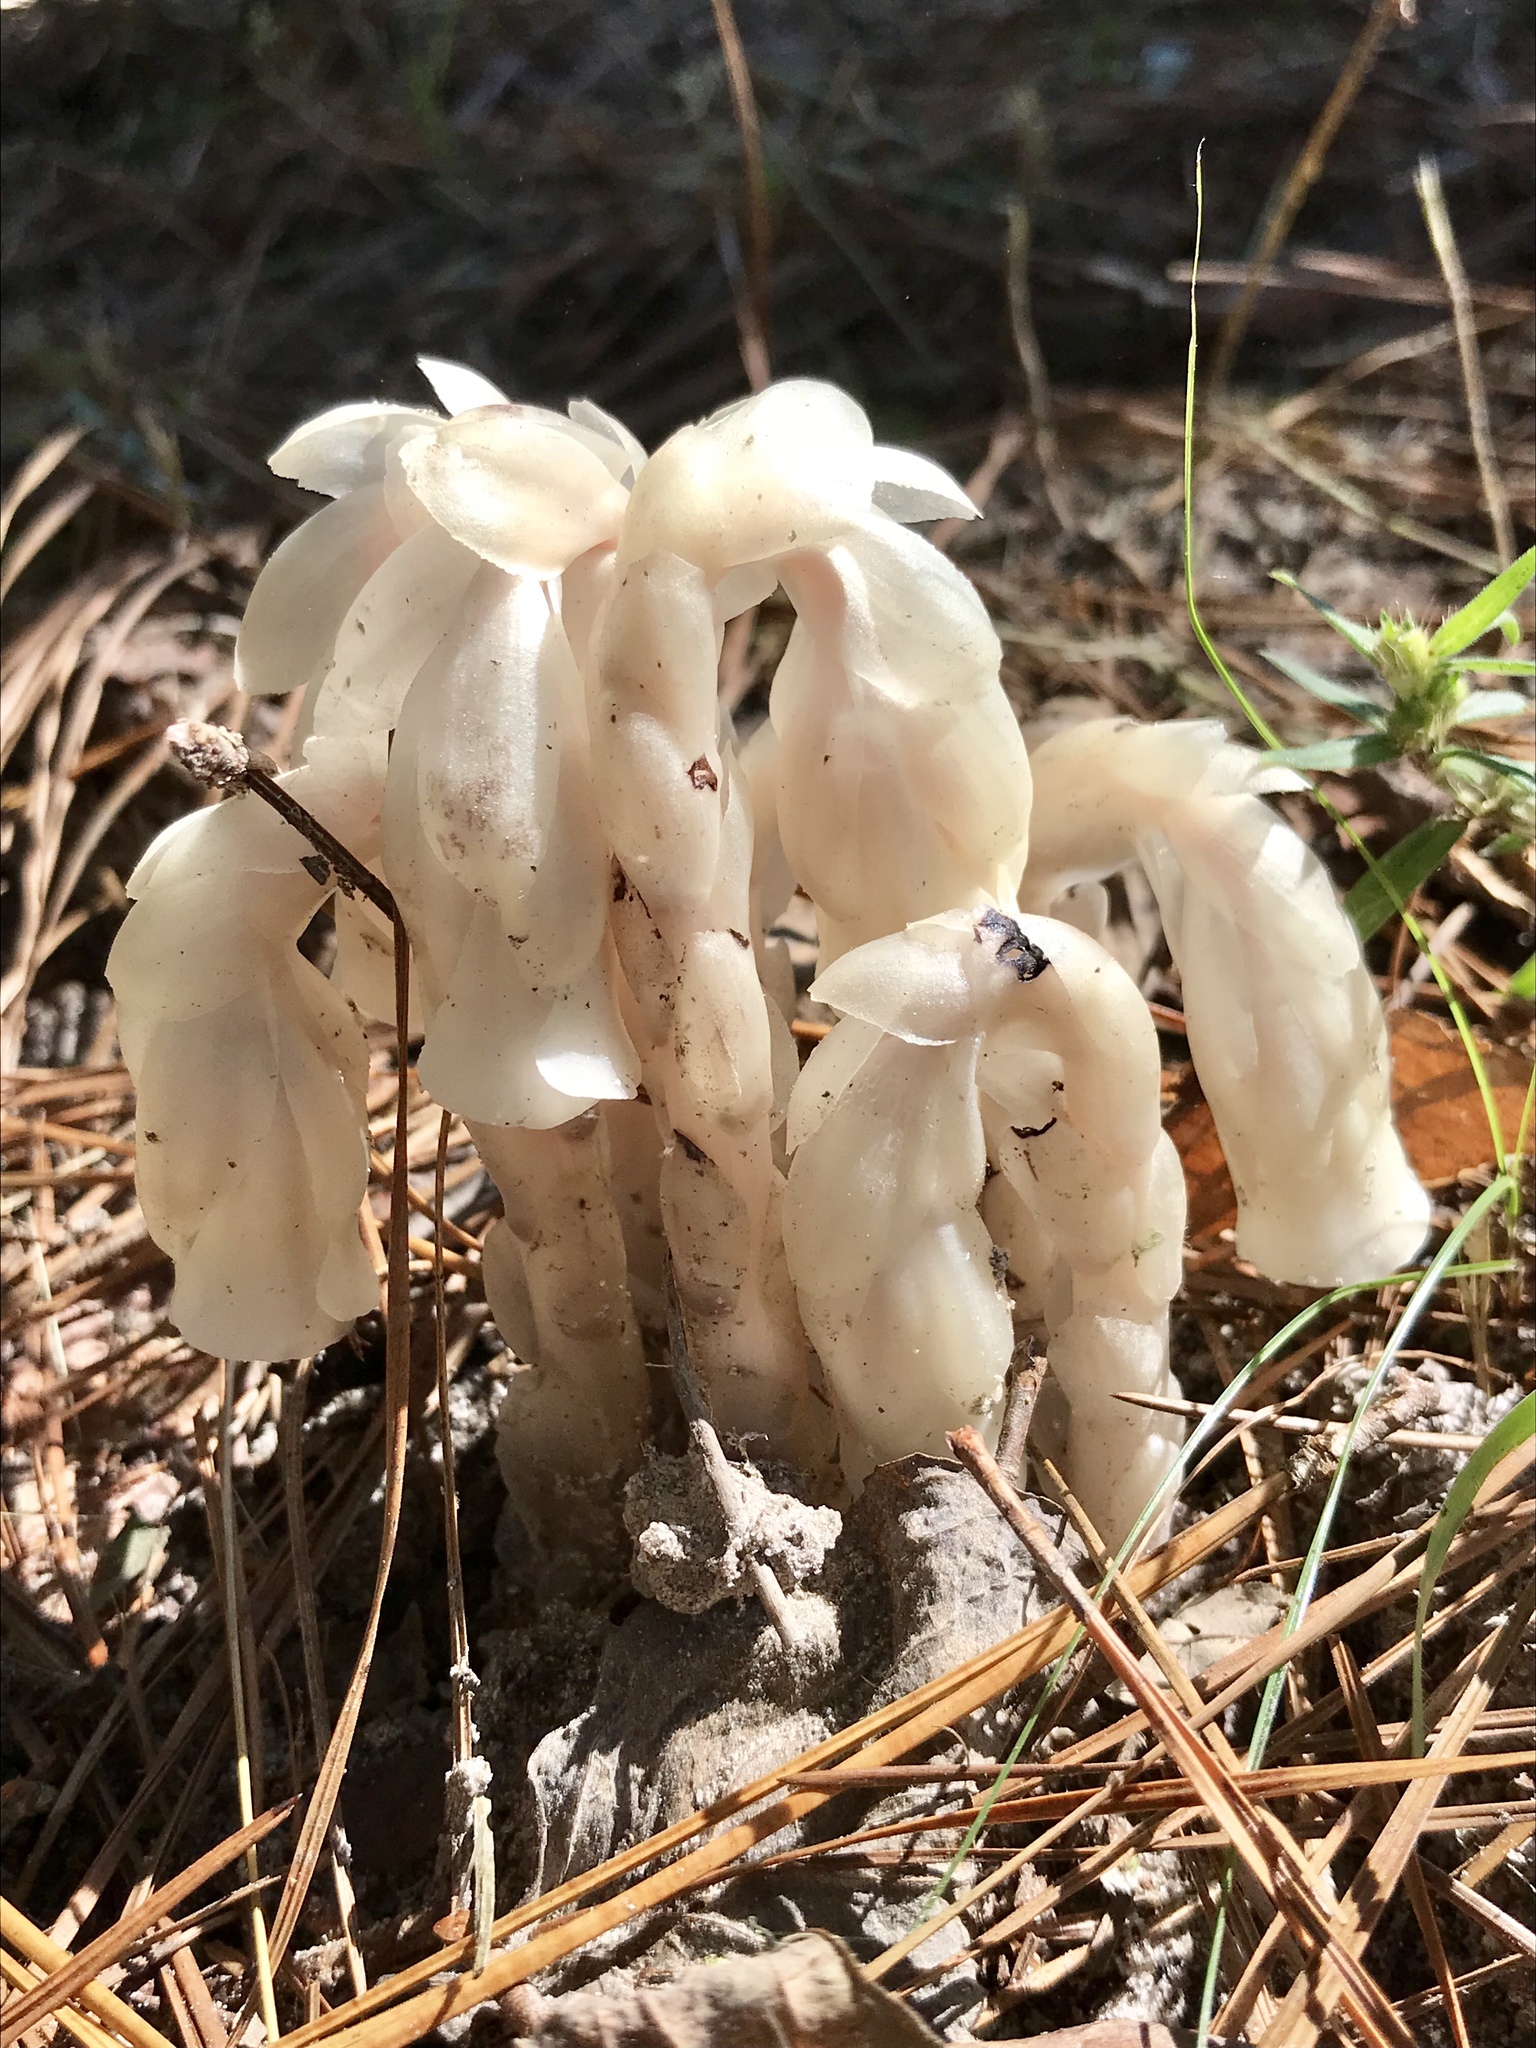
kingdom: Plantae
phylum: Tracheophyta
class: Magnoliopsida
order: Ericales
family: Ericaceae
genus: Monotropa
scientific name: Monotropa uniflora
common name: Convulsion root
